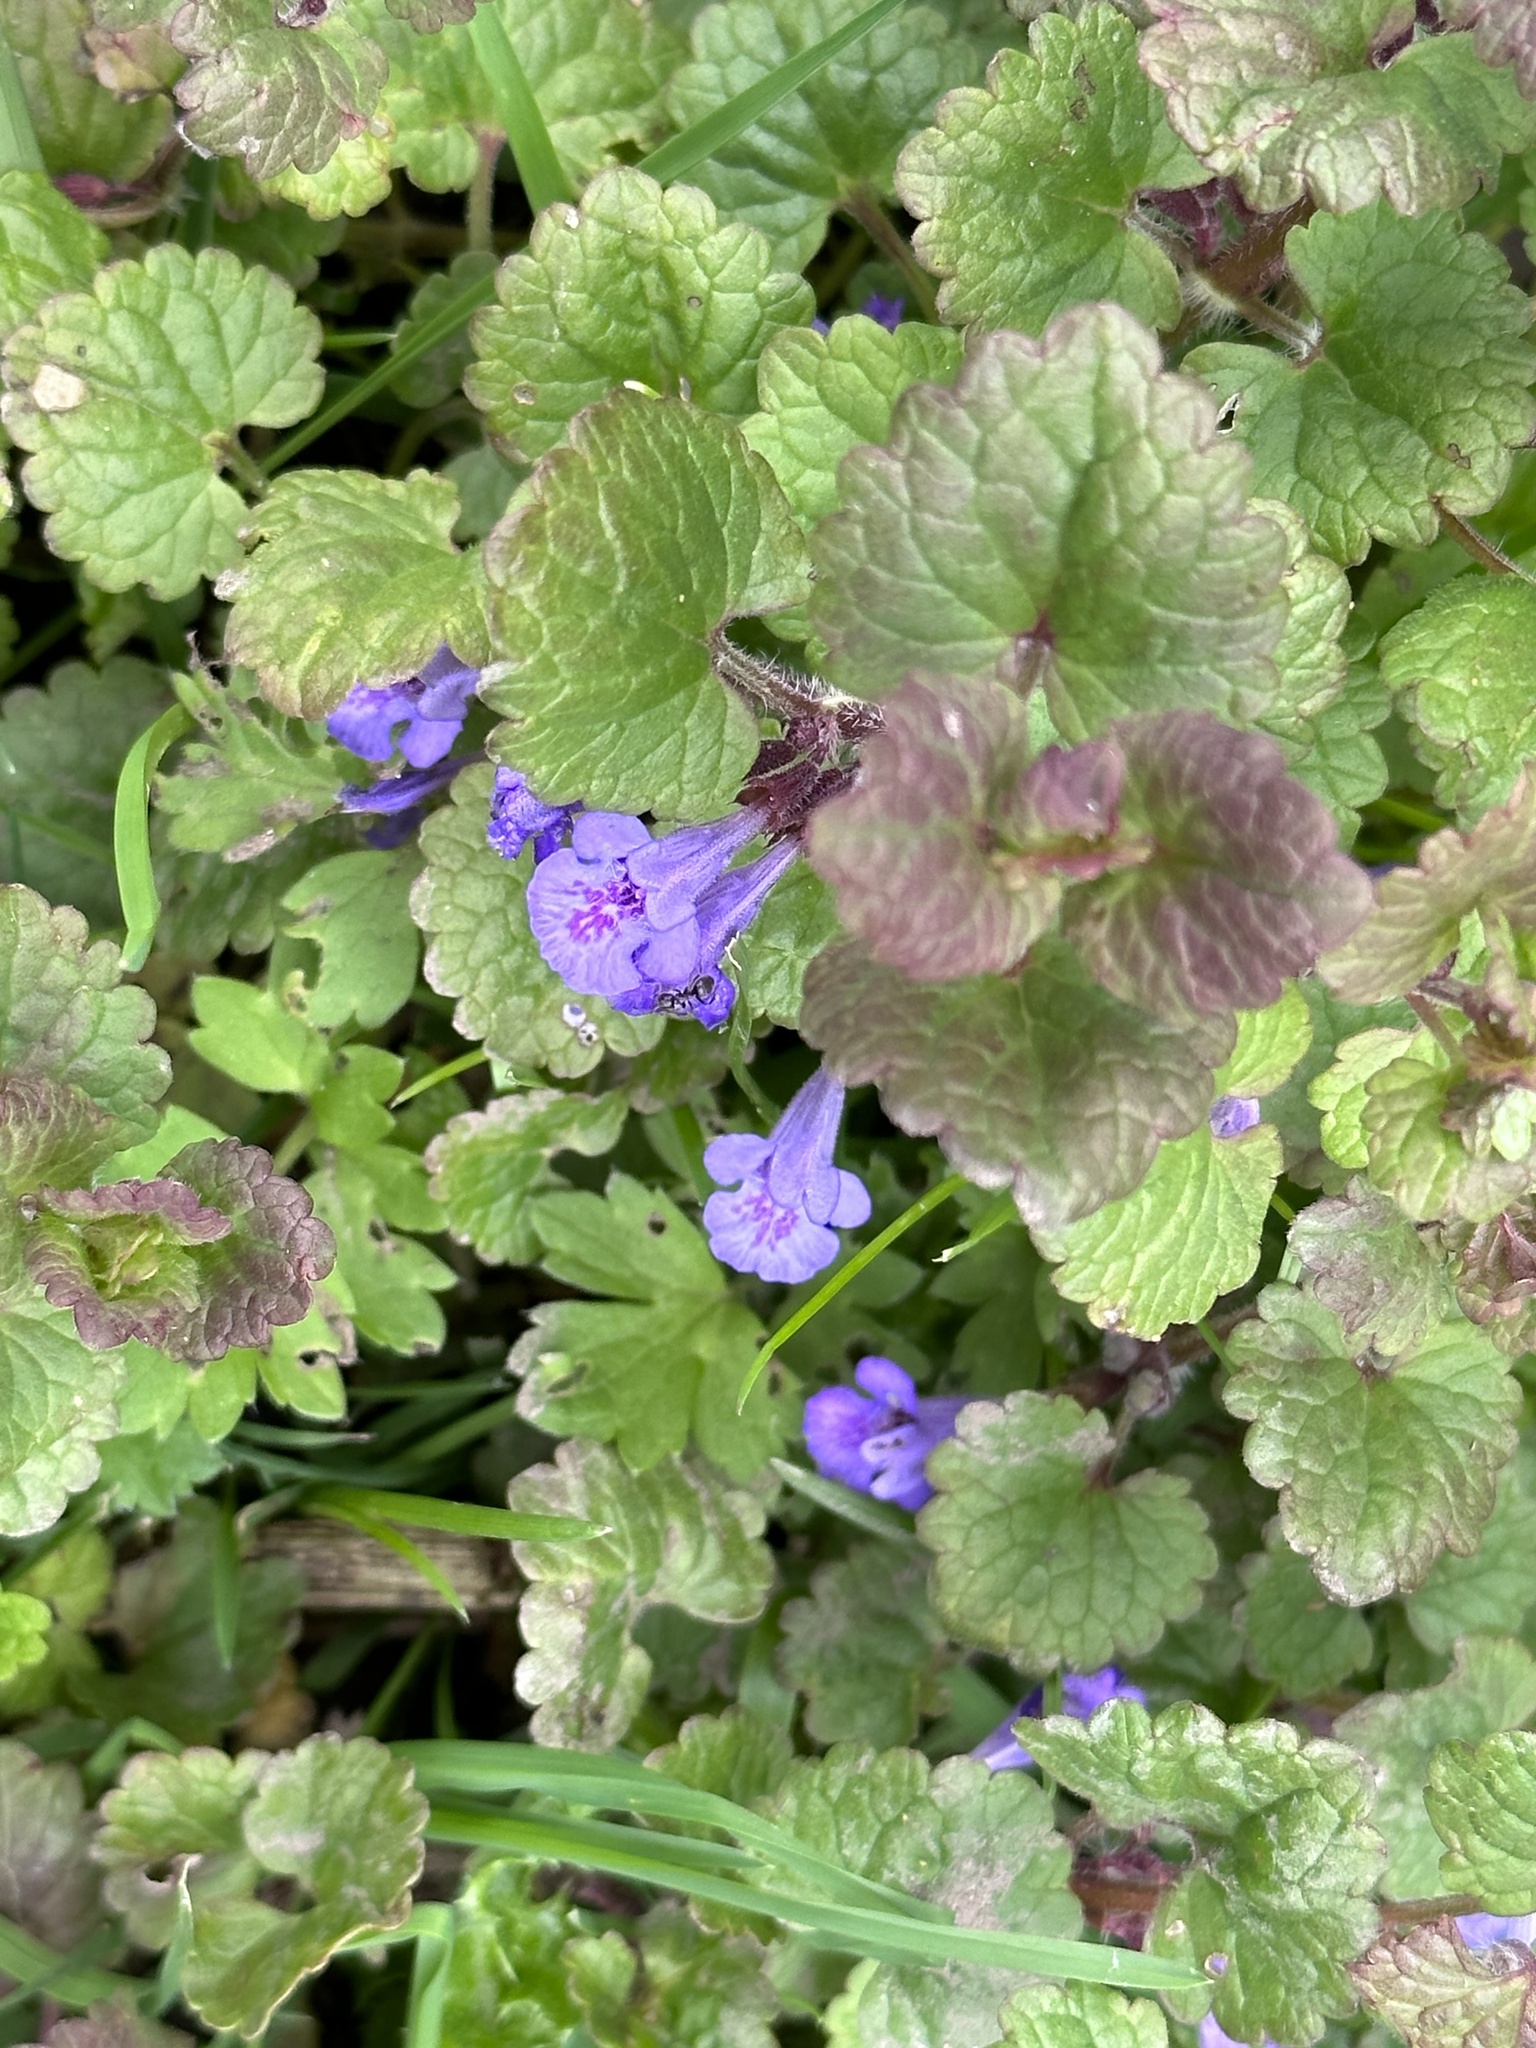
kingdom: Plantae
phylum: Tracheophyta
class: Magnoliopsida
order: Lamiales
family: Lamiaceae
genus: Glechoma
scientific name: Glechoma hederacea
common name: Ground ivy
